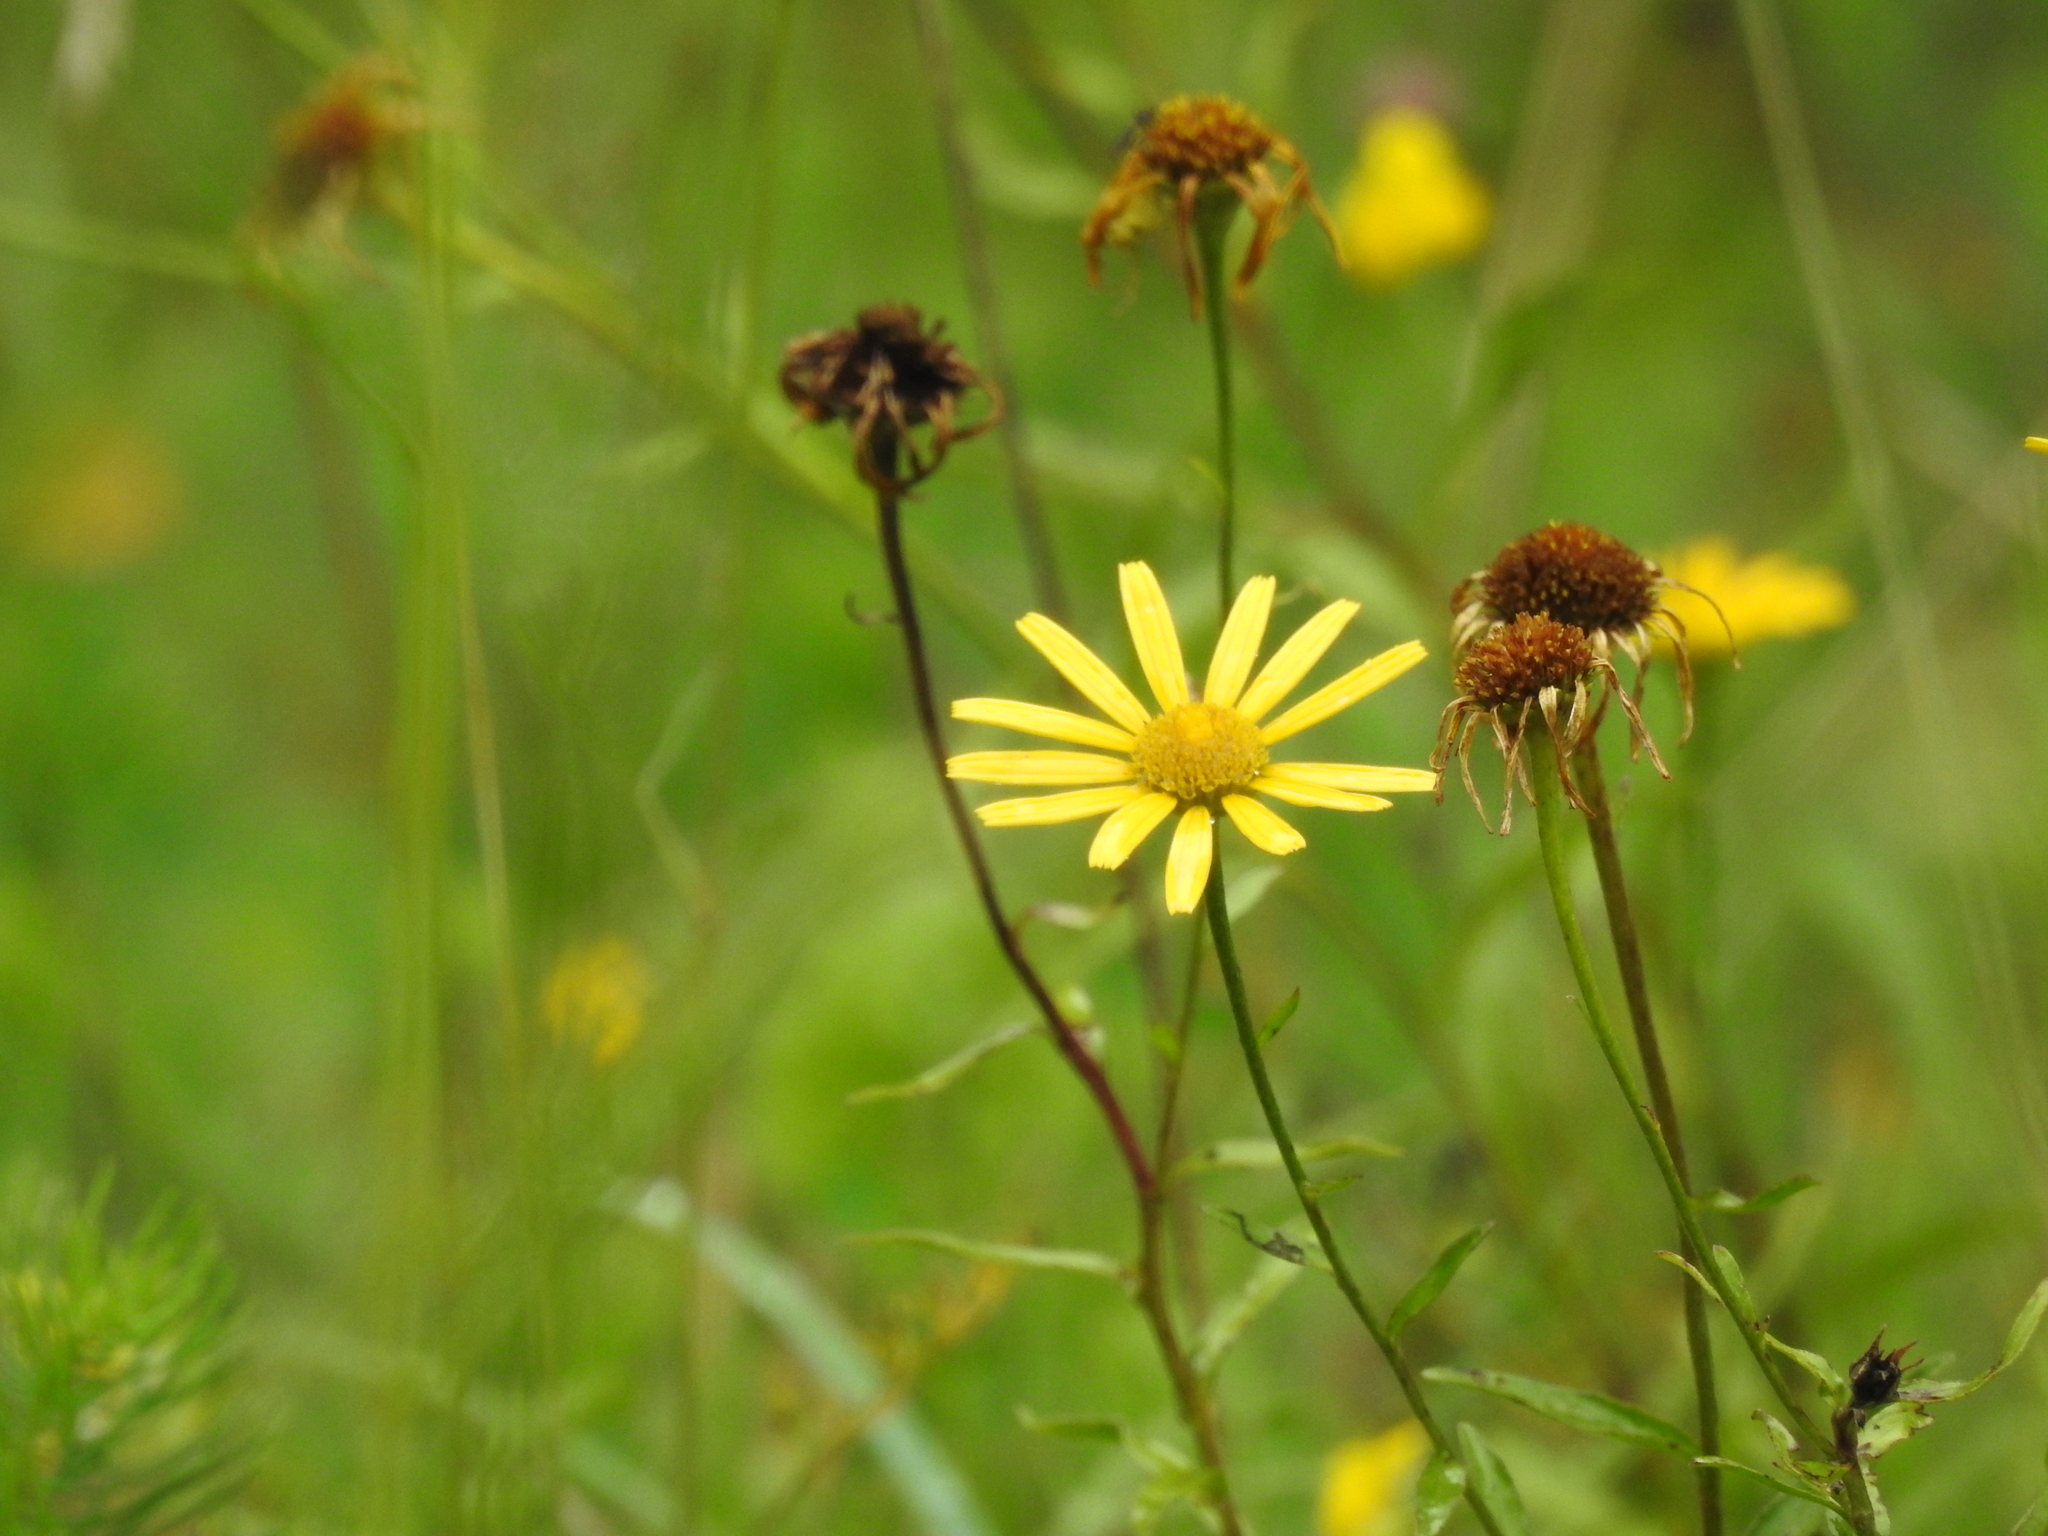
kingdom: Plantae
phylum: Tracheophyta
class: Magnoliopsida
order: Asterales
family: Asteraceae
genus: Buphthalmum
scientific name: Buphthalmum salicifolium
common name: Willow-leaved yellow-oxeye
